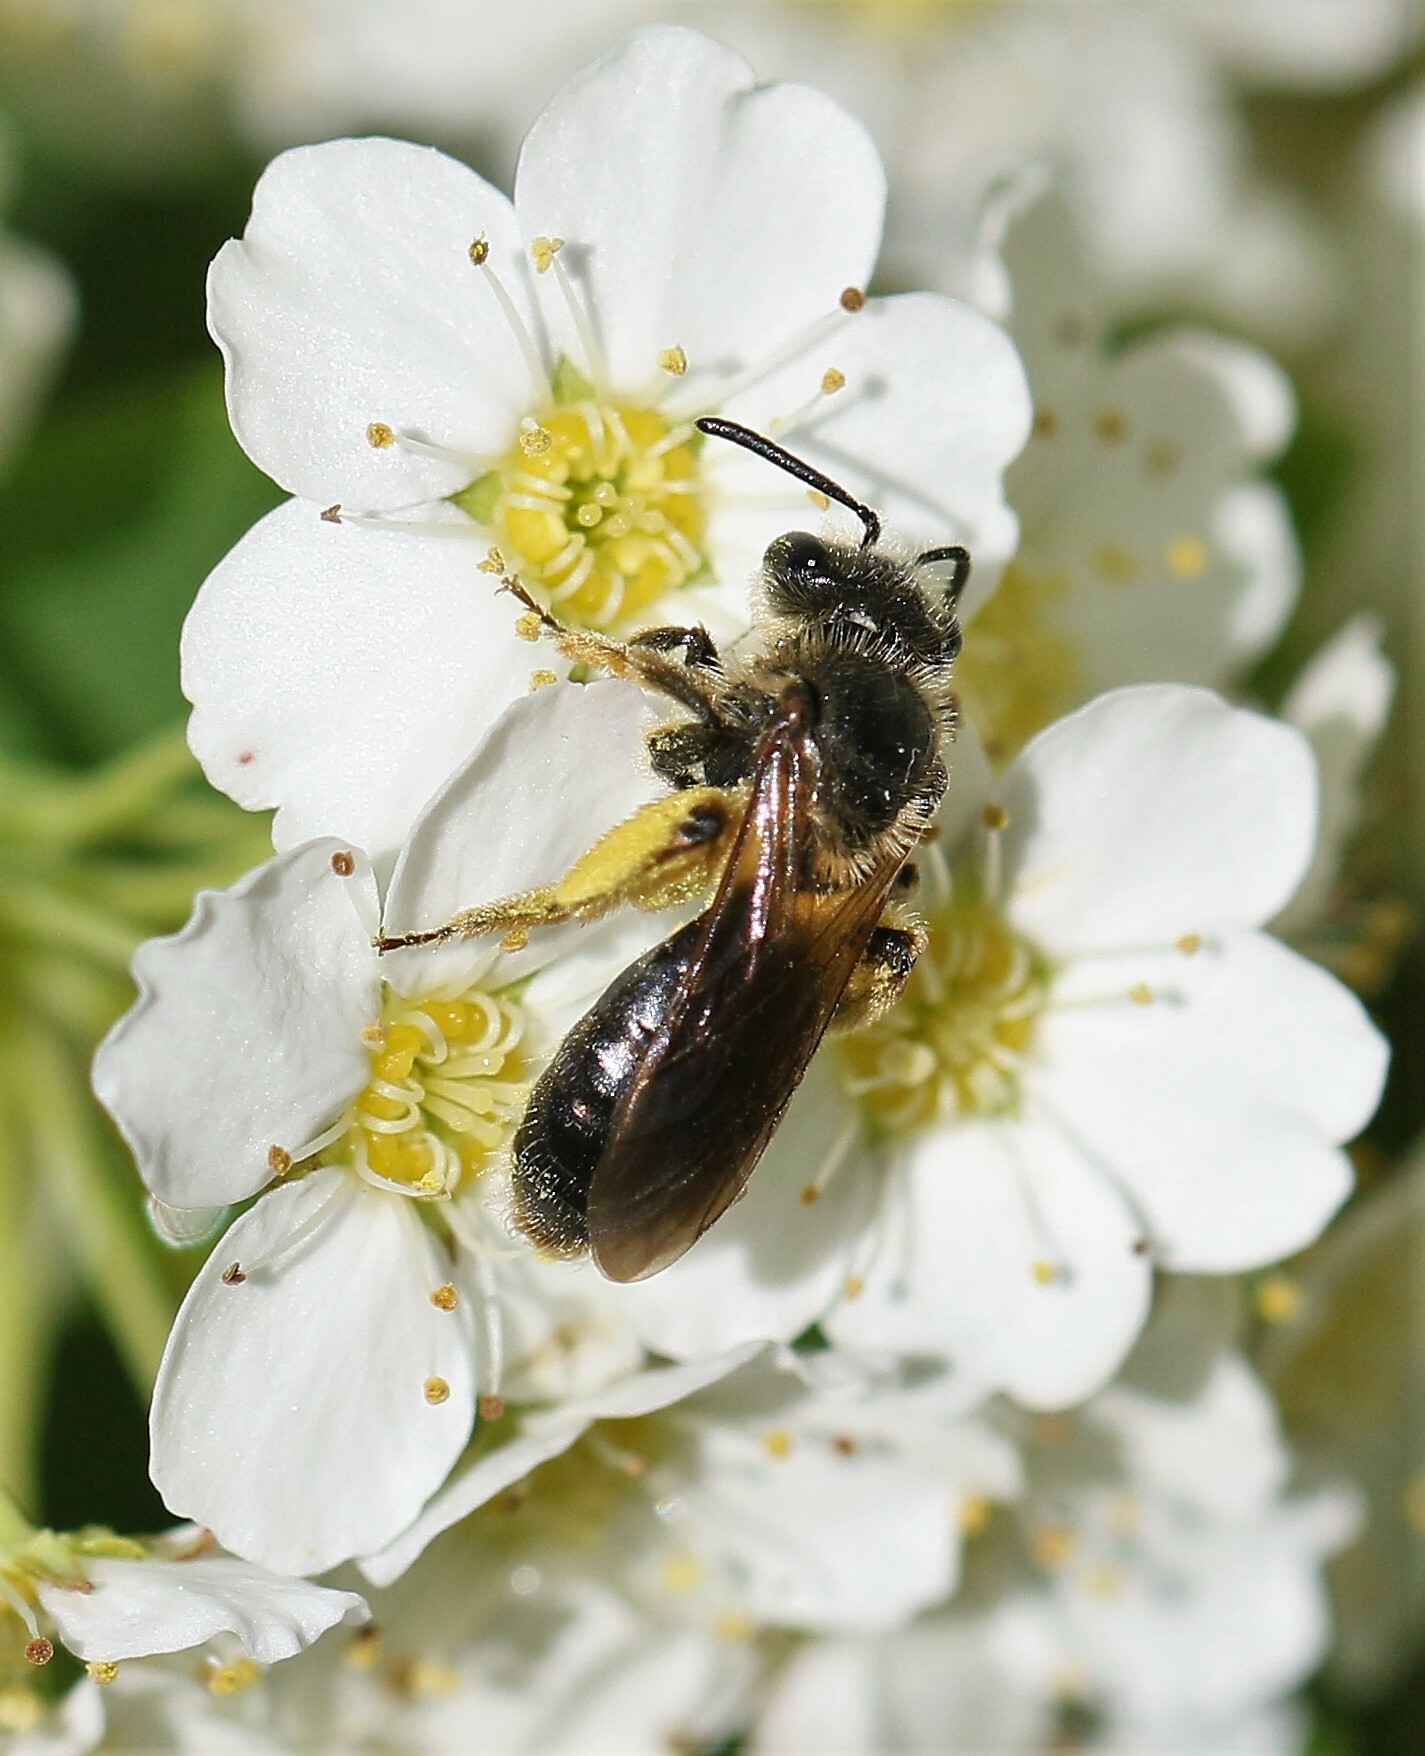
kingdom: Animalia
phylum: Arthropoda
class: Insecta
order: Hymenoptera
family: Andrenidae
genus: Andrena
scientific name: Andrena crataegi
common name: Hawthorn mining bee
